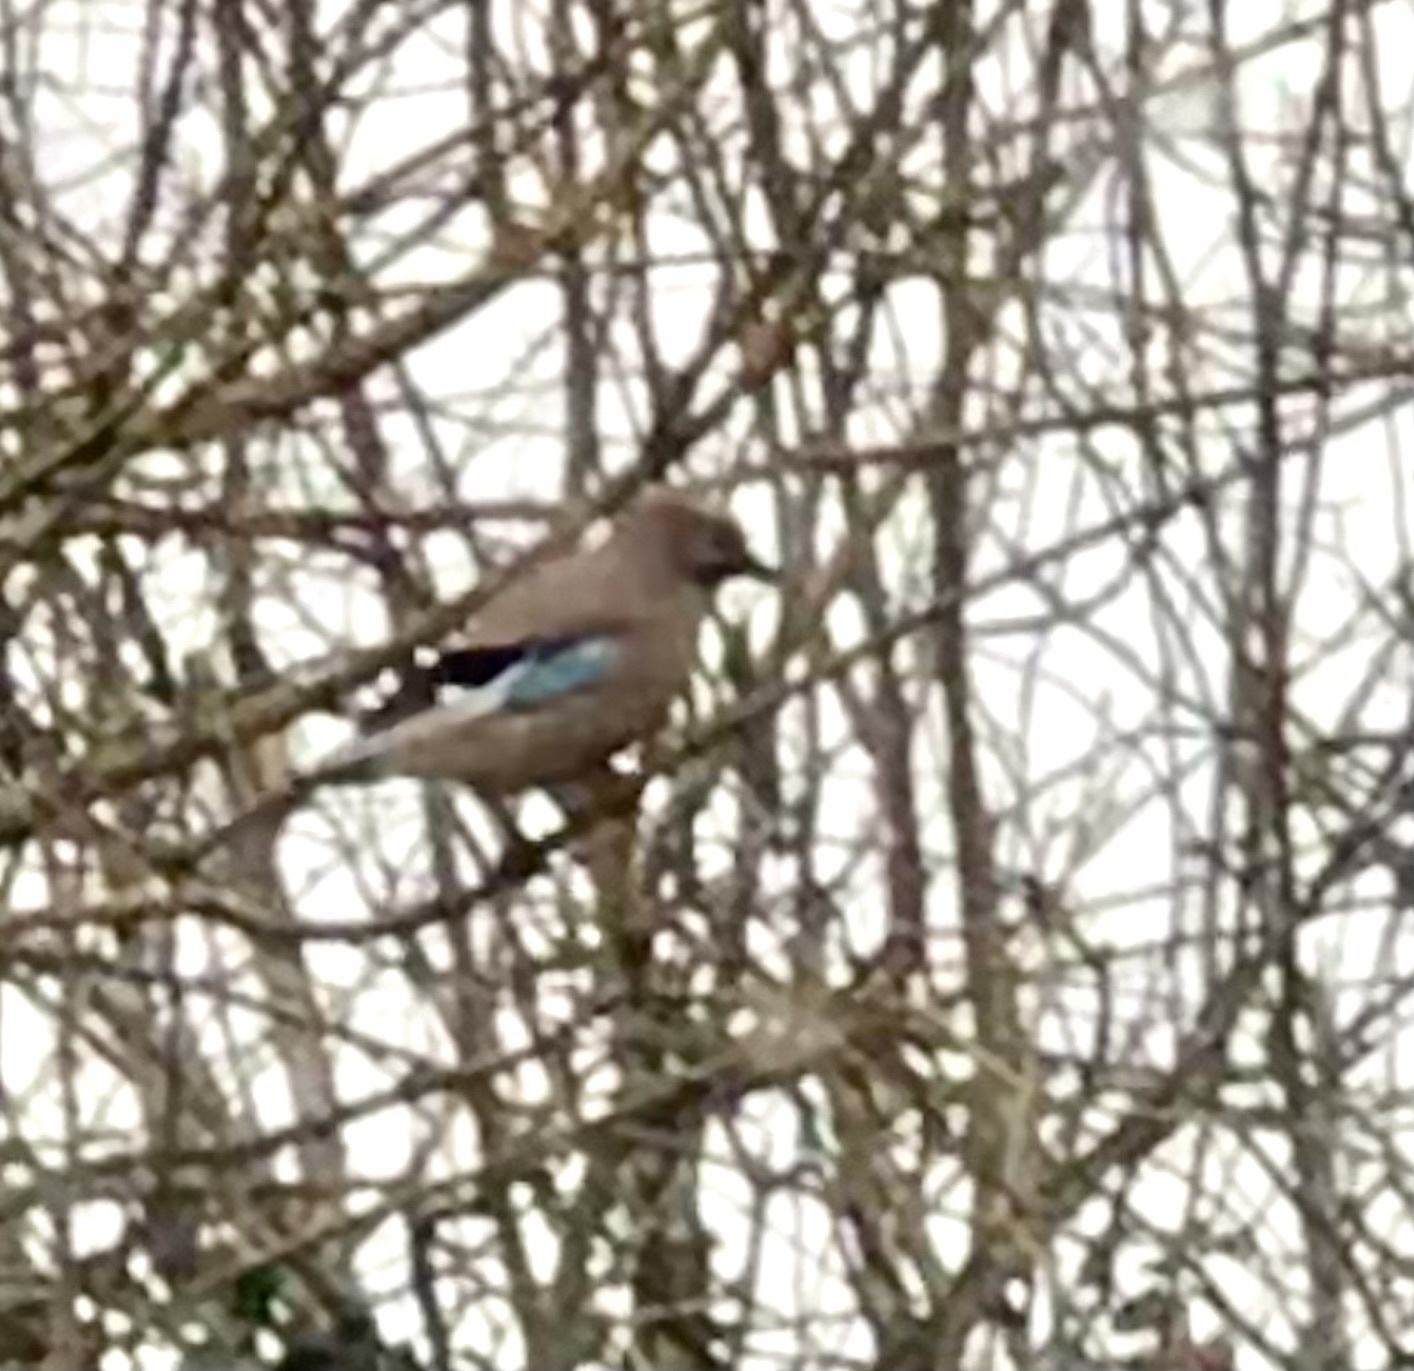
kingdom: Animalia
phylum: Chordata
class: Aves
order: Passeriformes
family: Corvidae
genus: Garrulus
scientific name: Garrulus glandarius
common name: Eurasian jay
